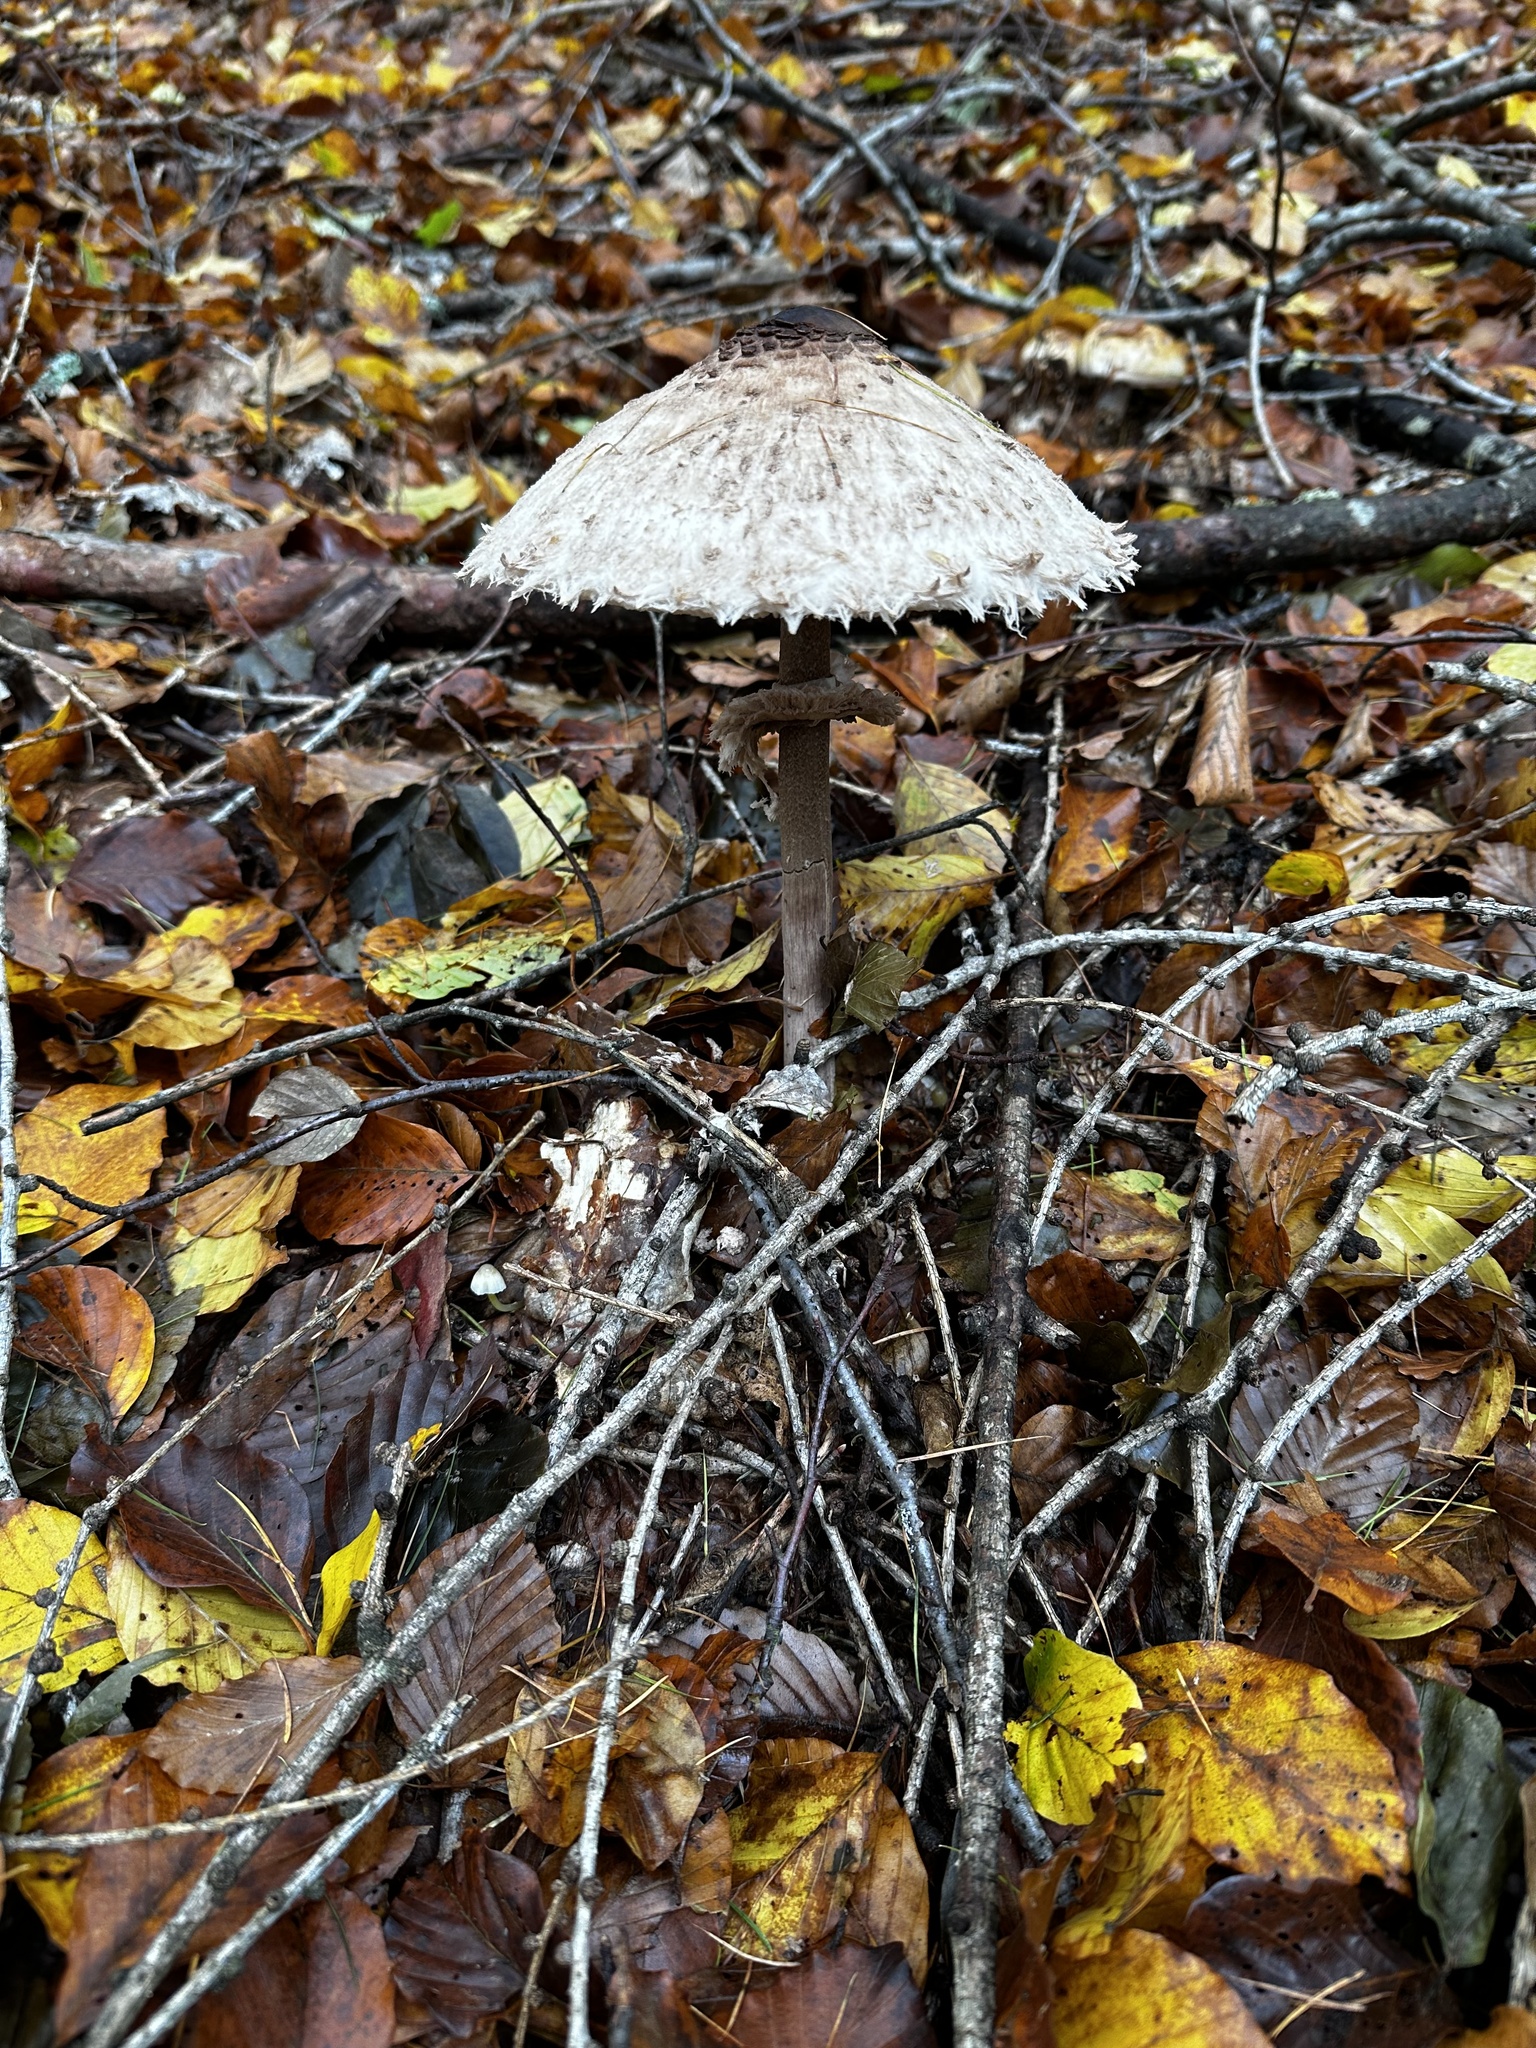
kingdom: Fungi
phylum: Basidiomycota
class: Agaricomycetes
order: Agaricales
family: Agaricaceae
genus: Macrolepiota
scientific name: Macrolepiota procera
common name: Parasol
